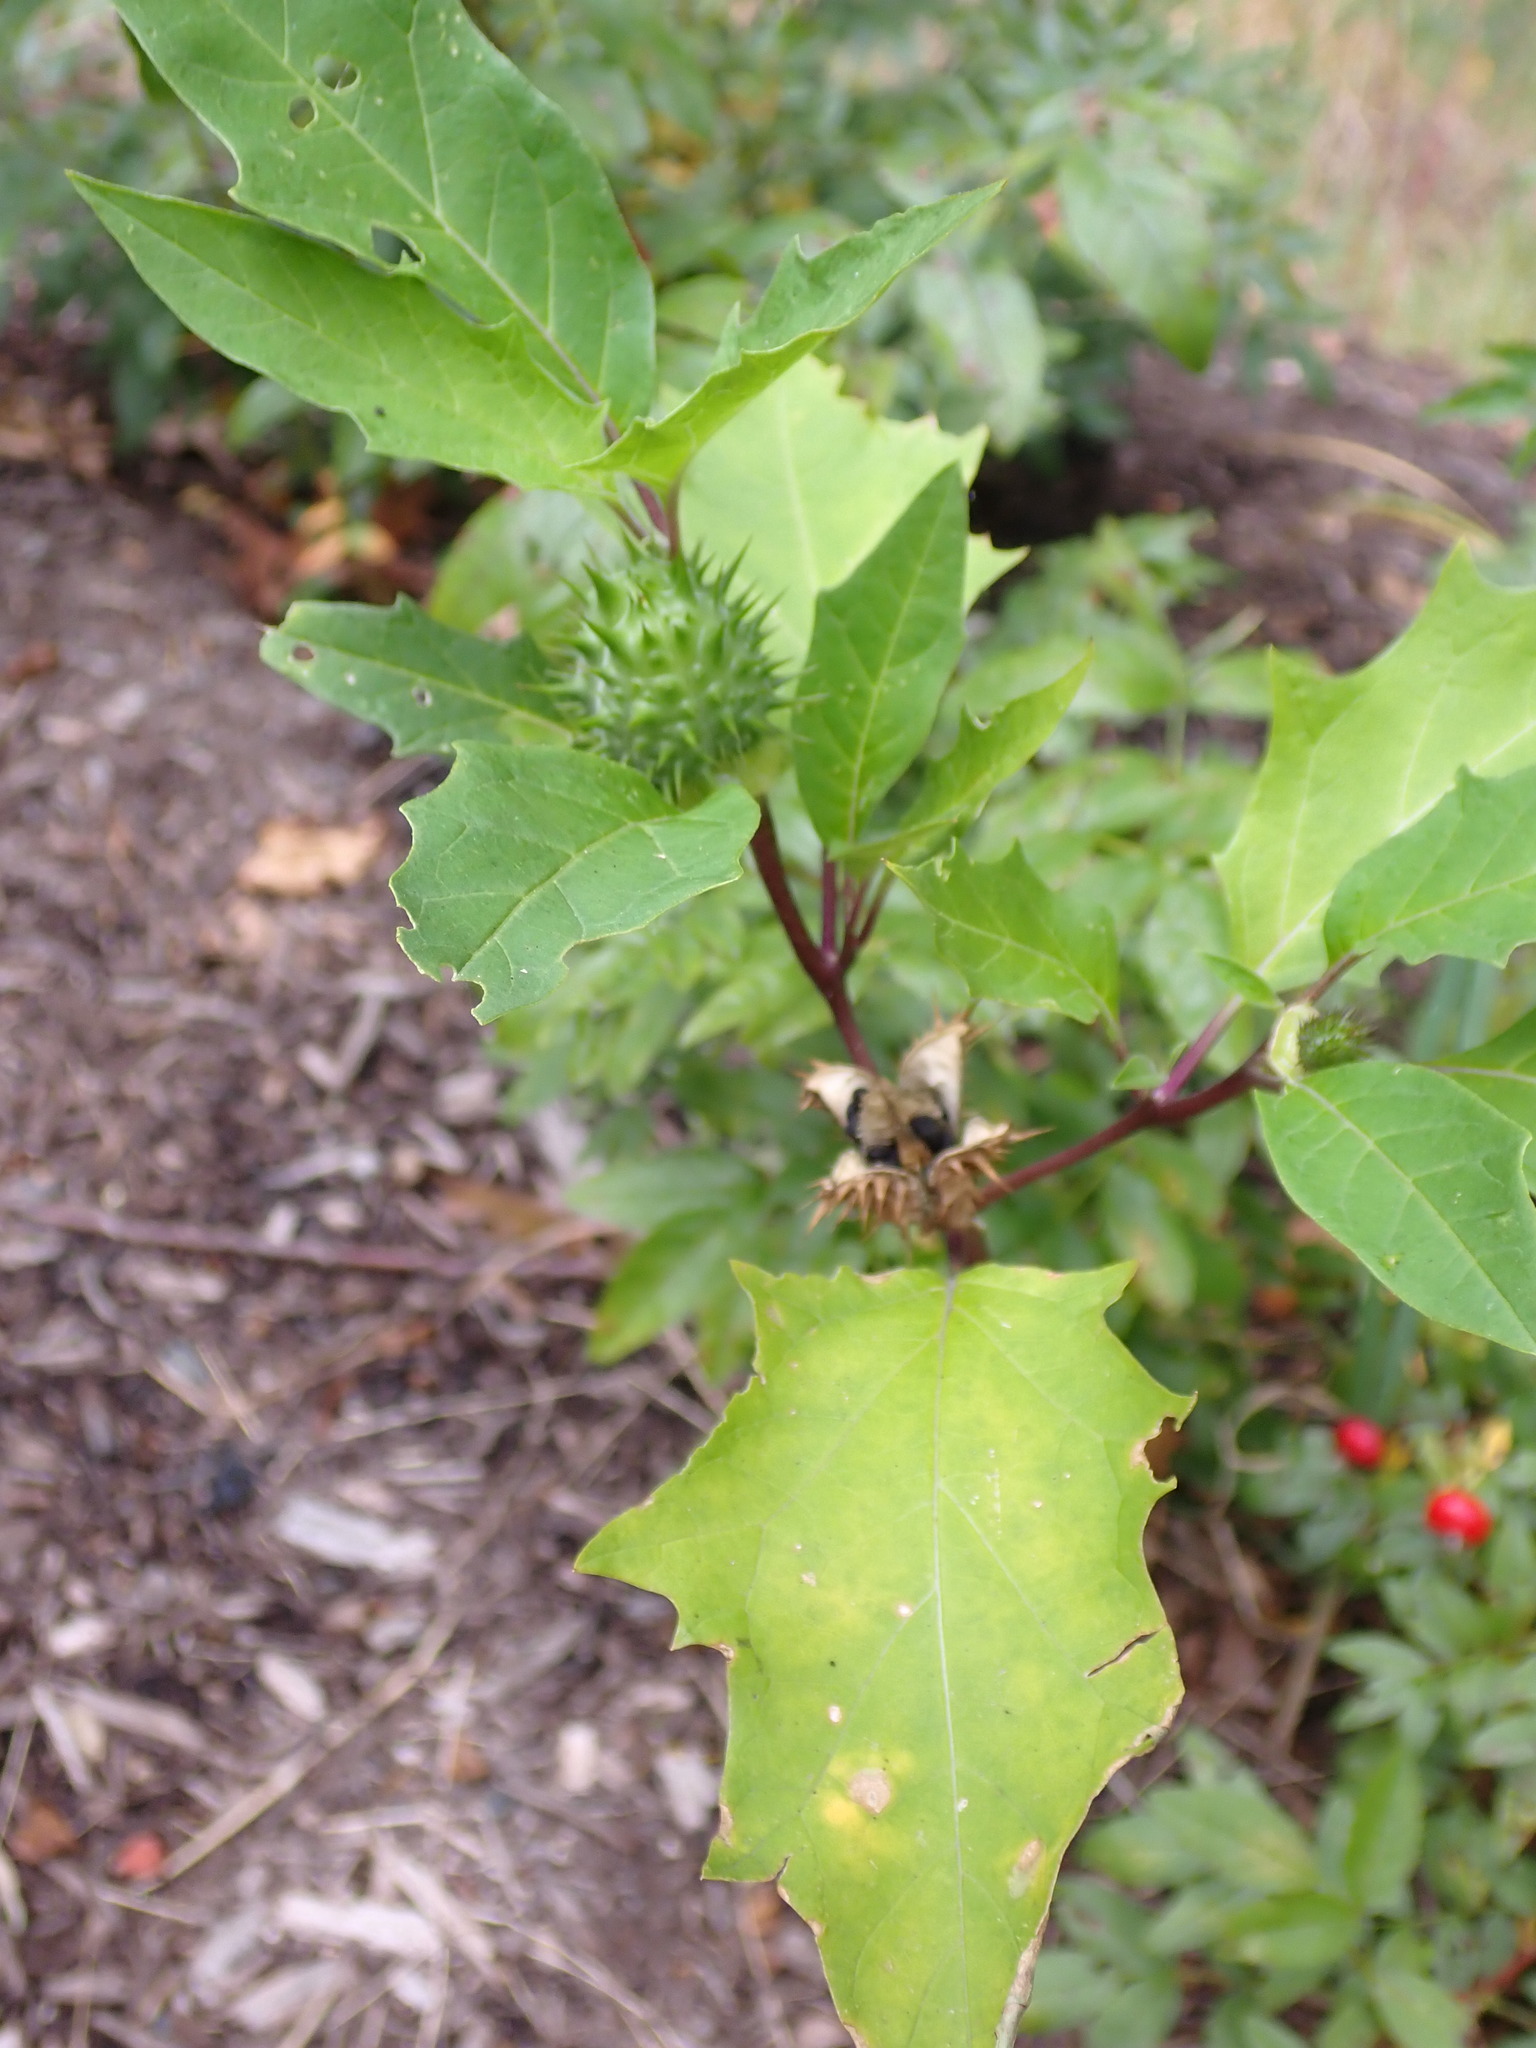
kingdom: Plantae
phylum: Tracheophyta
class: Magnoliopsida
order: Solanales
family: Solanaceae
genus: Datura
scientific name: Datura stramonium
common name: Thorn-apple
